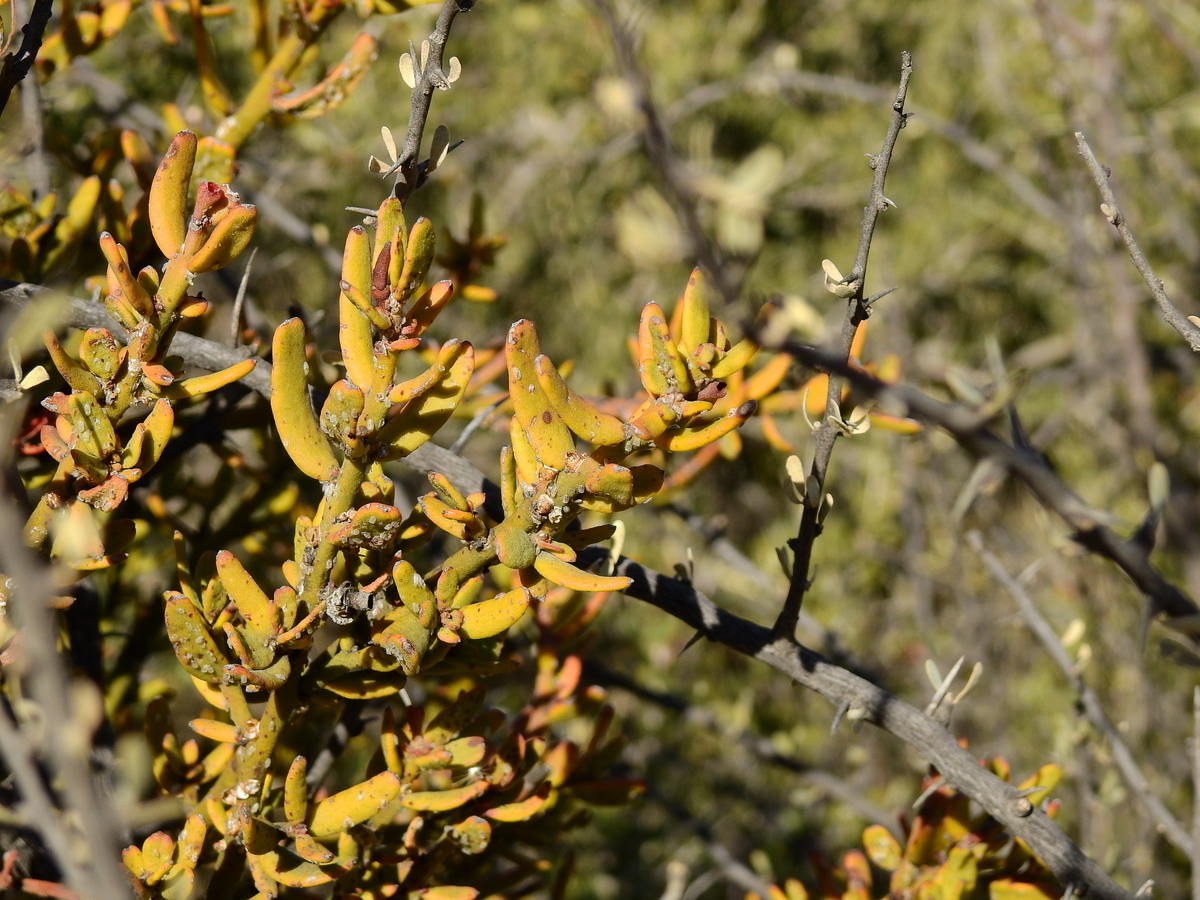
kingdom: Plantae
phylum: Tracheophyta
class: Magnoliopsida
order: Santalales
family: Loranthaceae
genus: Ligaria
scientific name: Ligaria cuneifolia
